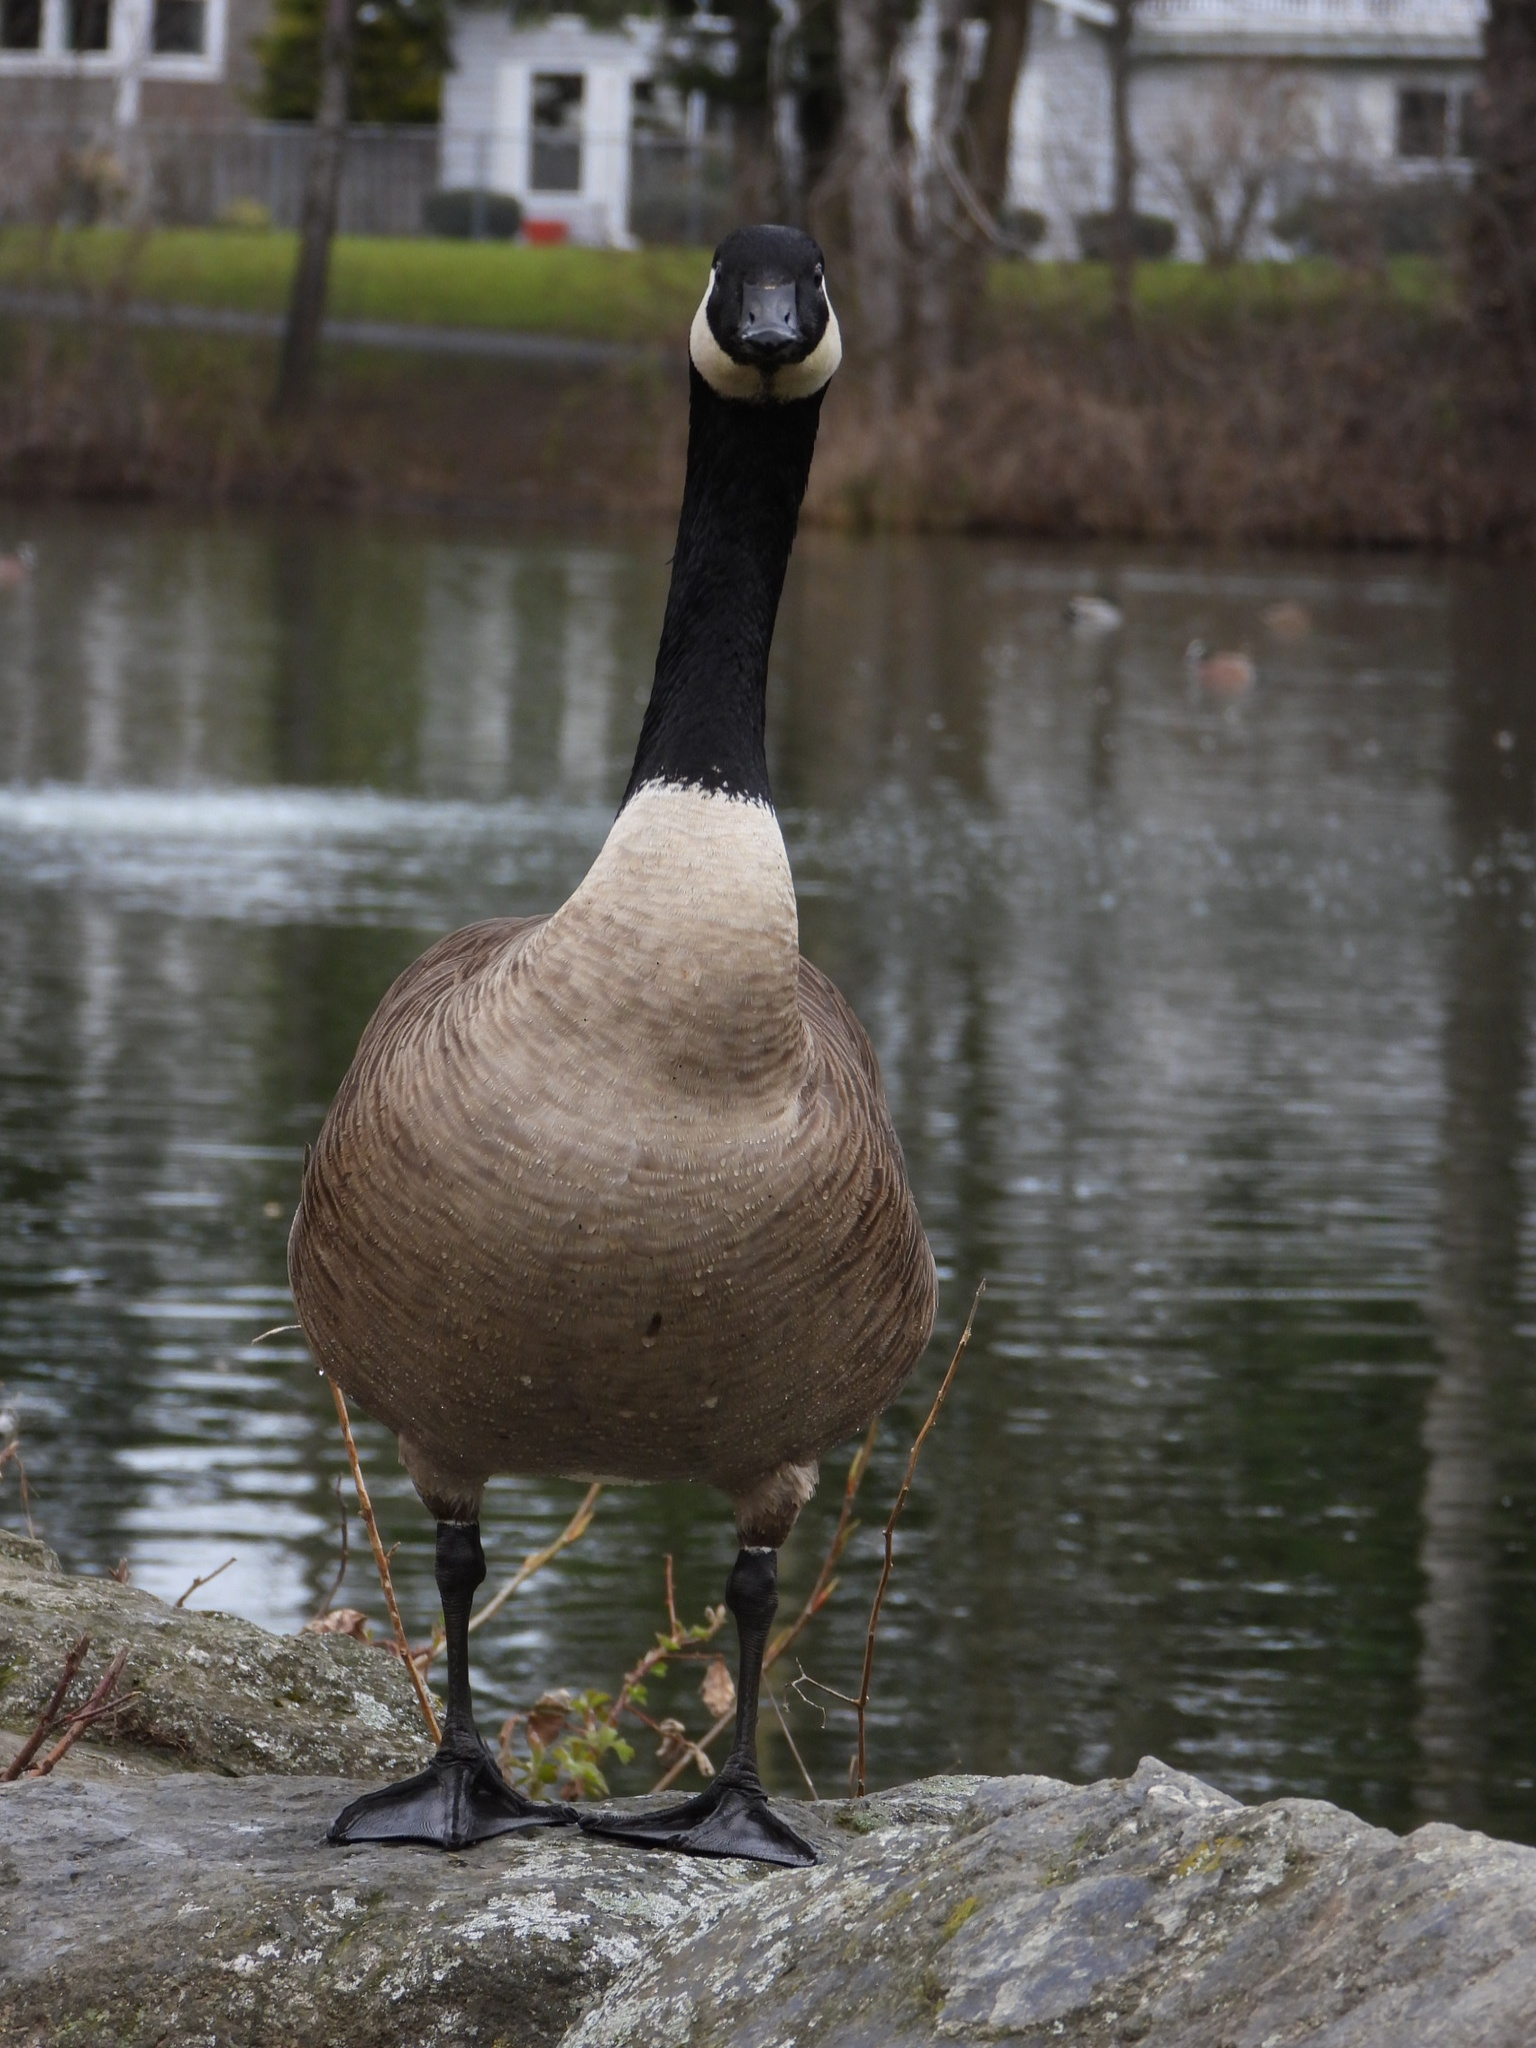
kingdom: Animalia
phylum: Chordata
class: Aves
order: Anseriformes
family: Anatidae
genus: Branta
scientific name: Branta canadensis
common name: Canada goose
